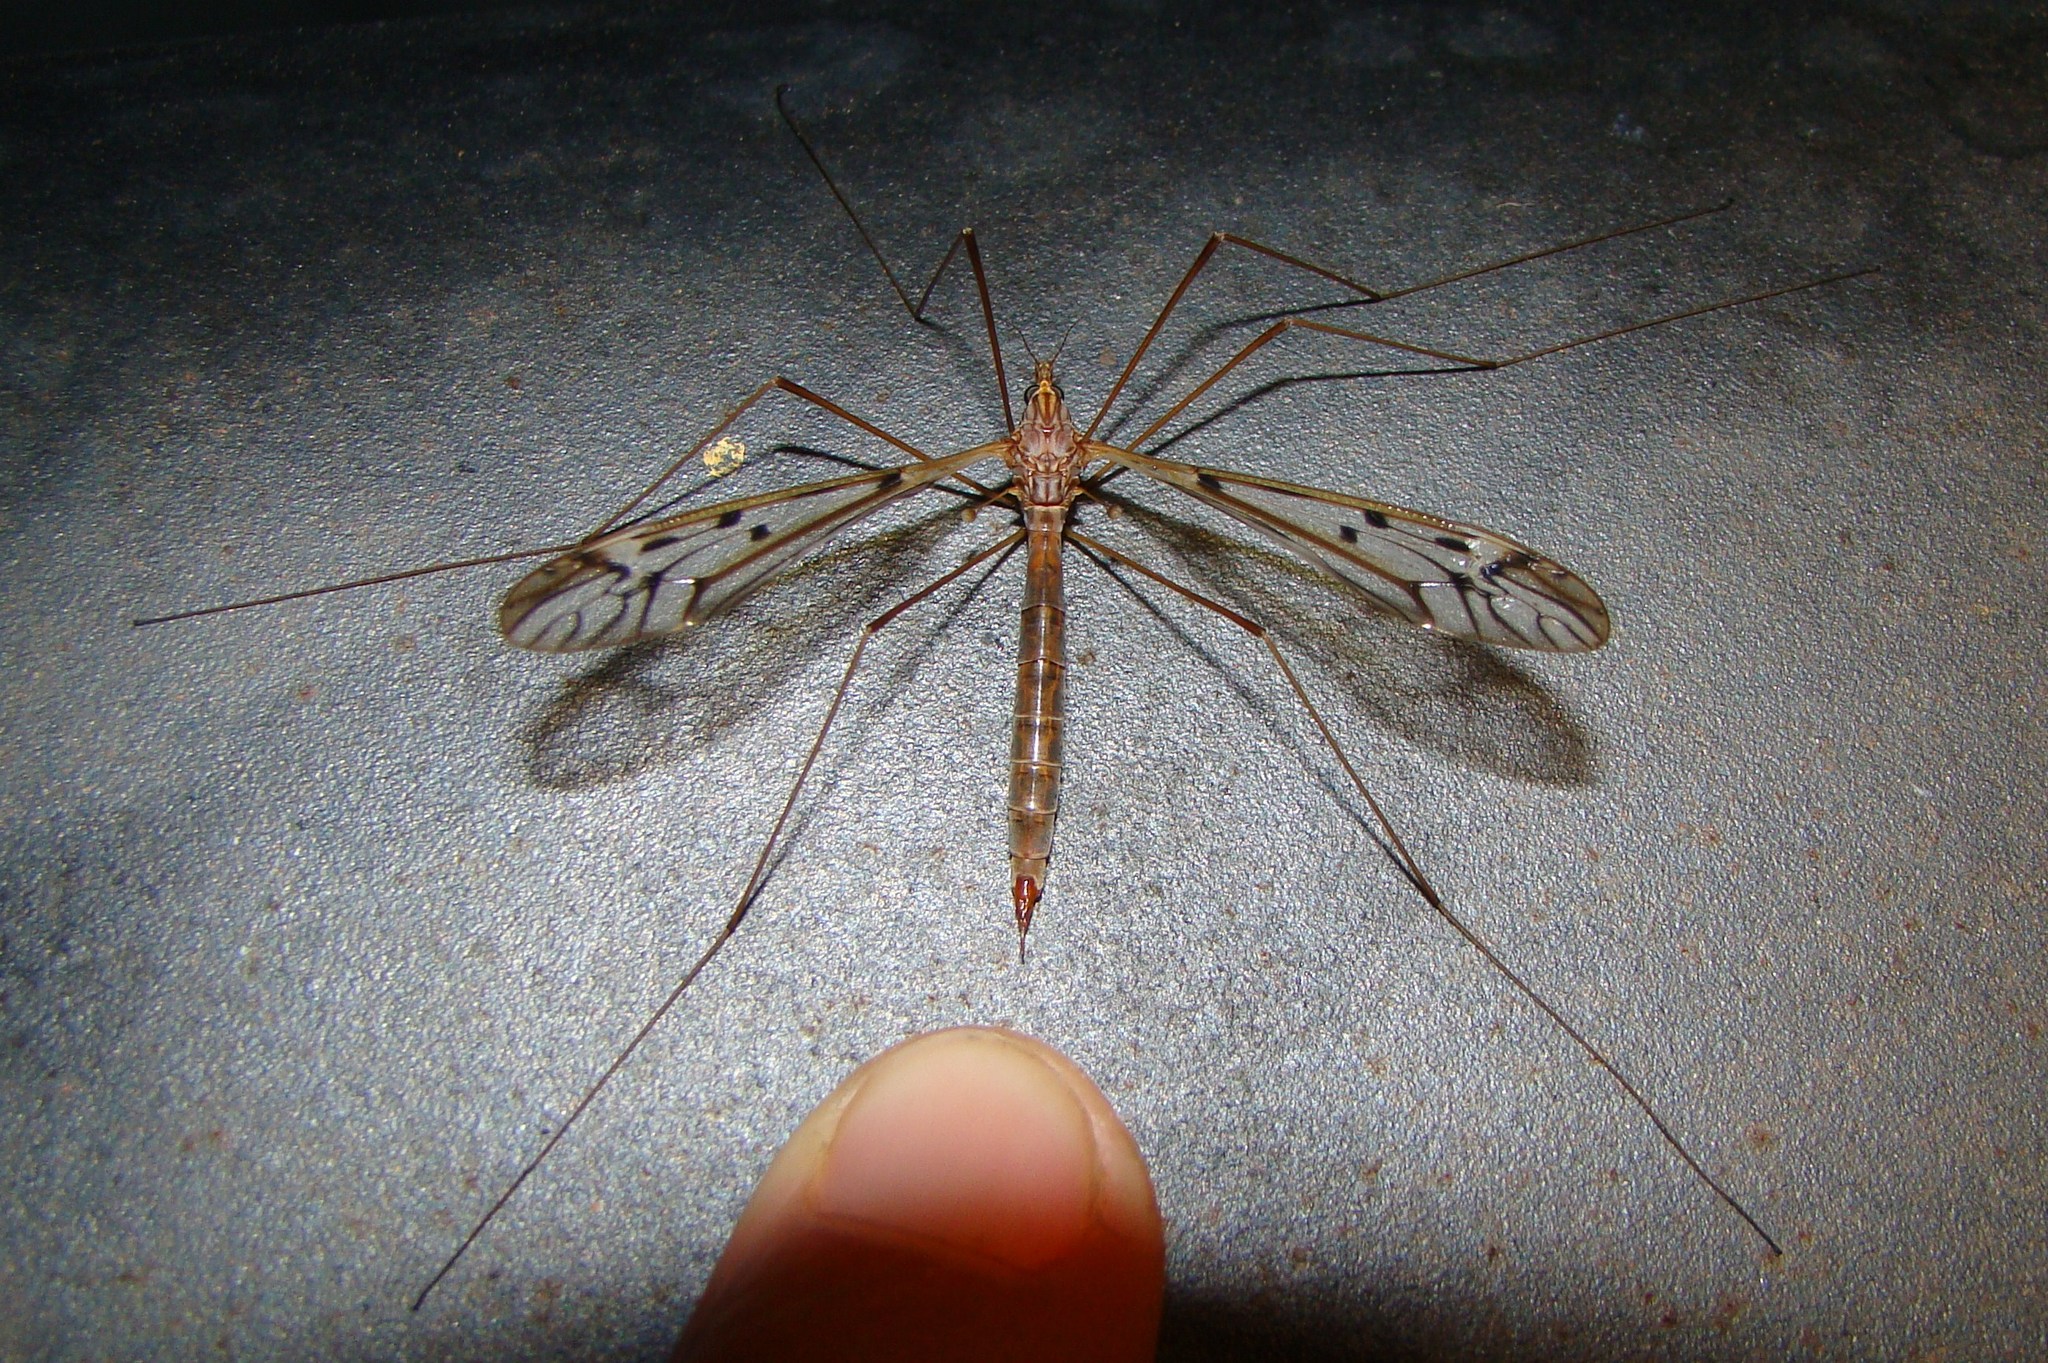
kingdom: Animalia
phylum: Arthropoda
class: Insecta
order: Diptera
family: Tipulidae
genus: Zelandotipula
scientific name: Zelandotipula novarae
